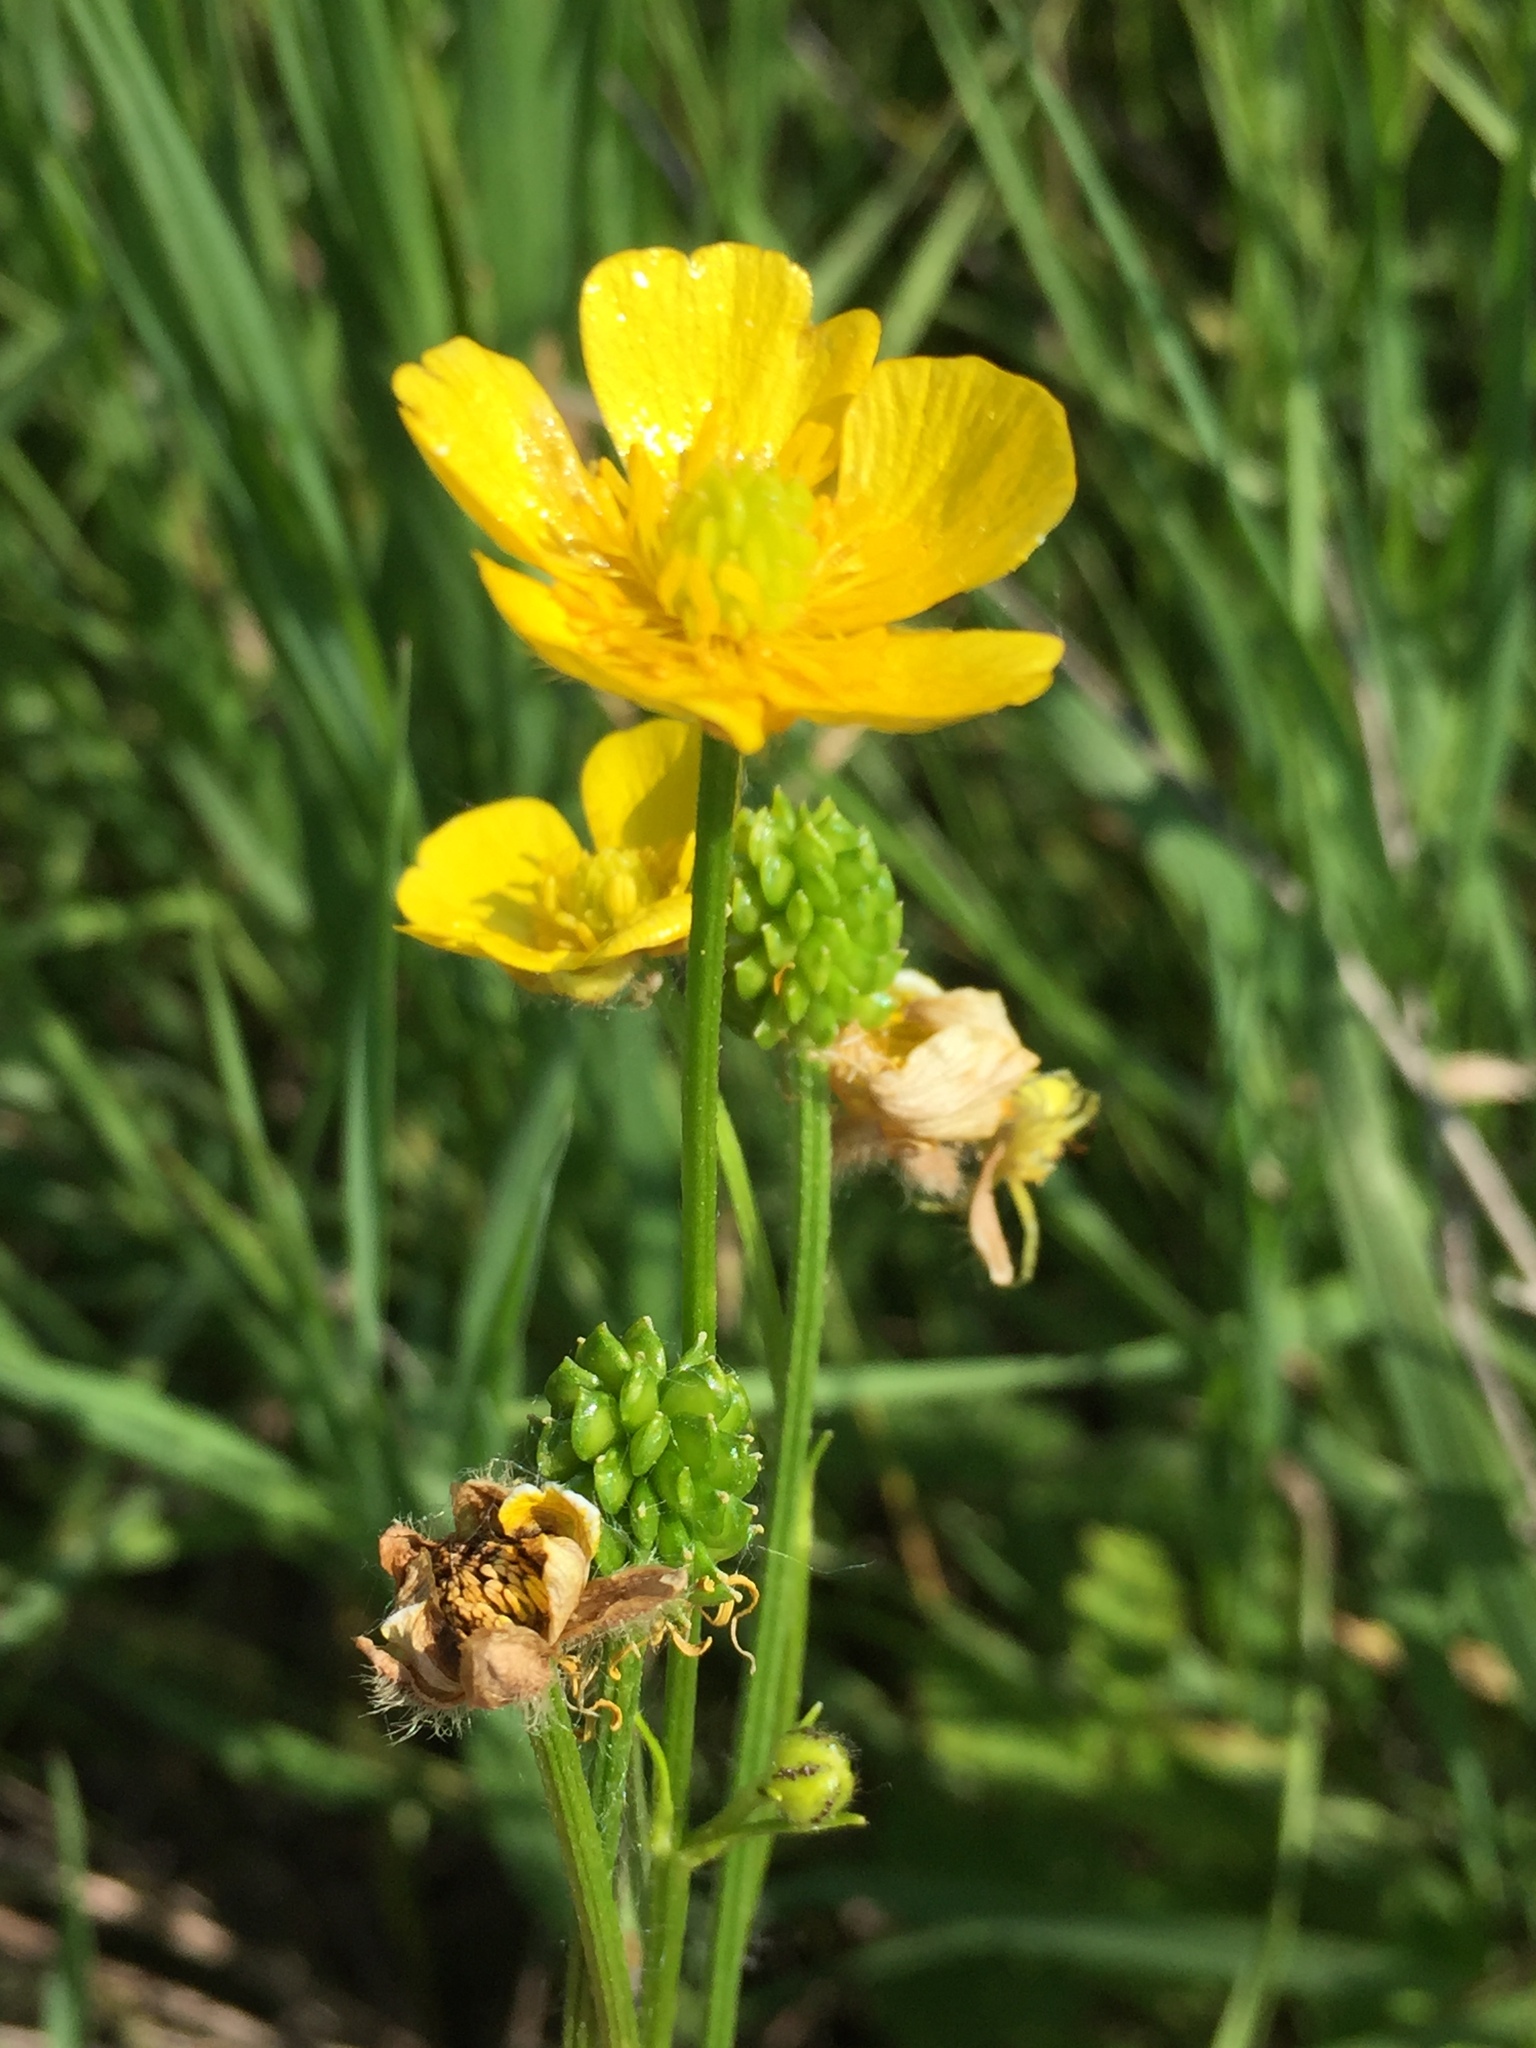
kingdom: Plantae
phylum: Tracheophyta
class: Magnoliopsida
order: Ranunculales
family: Ranunculaceae
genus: Ranunculus
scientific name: Ranunculus polyanthemos
